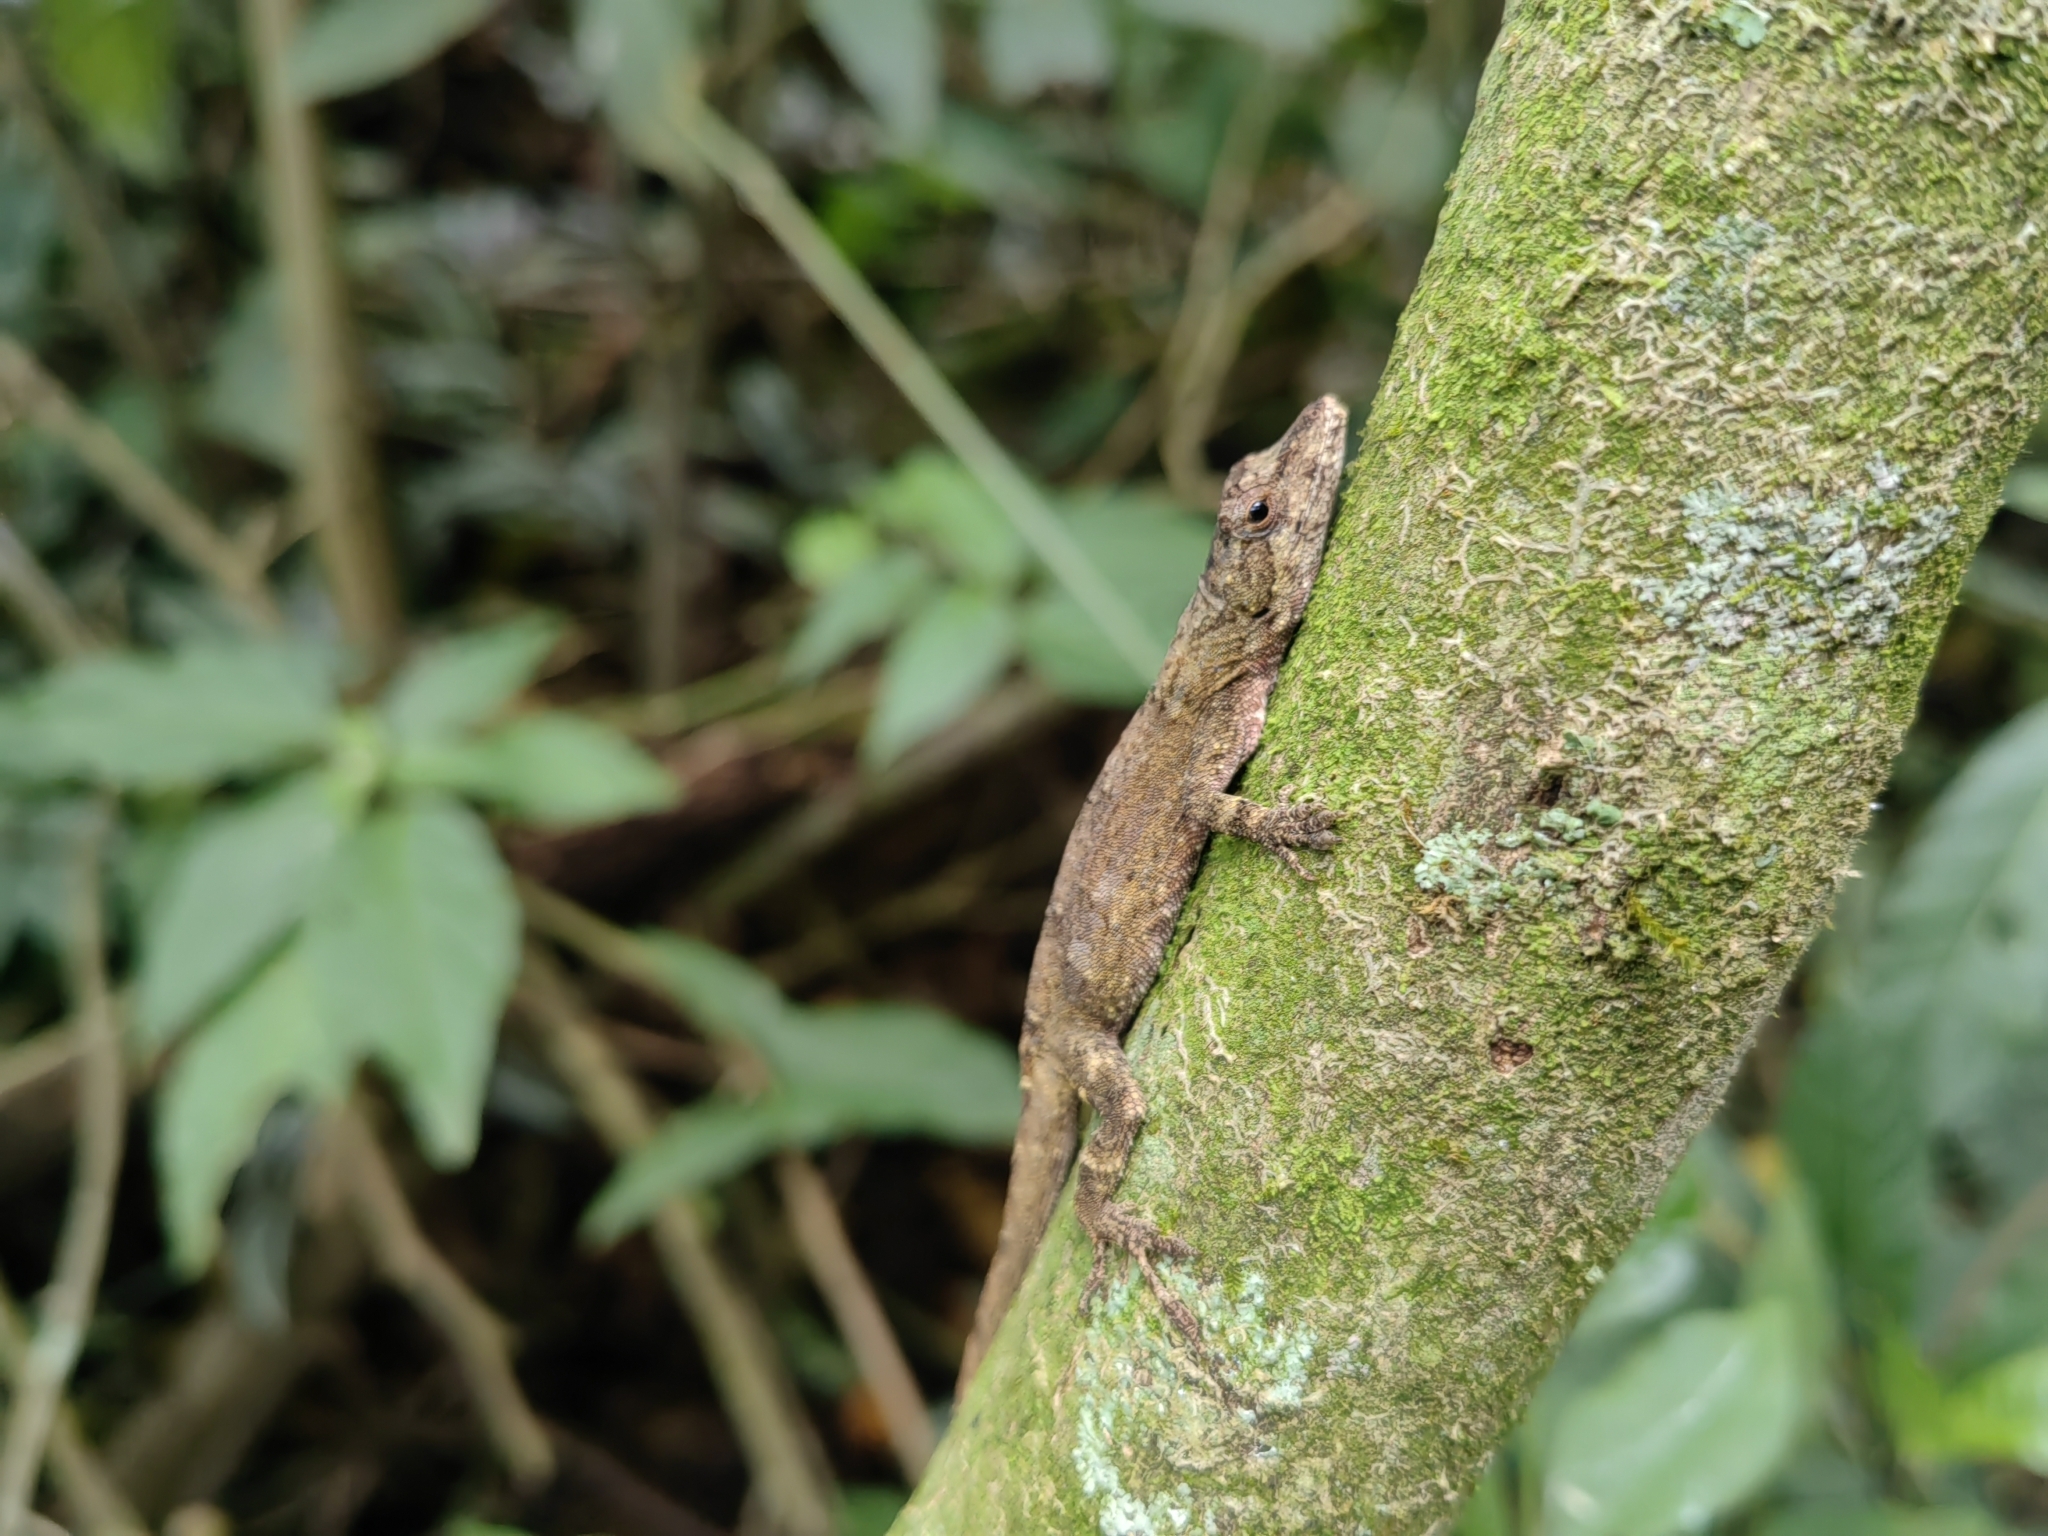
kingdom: Animalia
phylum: Chordata
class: Squamata
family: Dactyloidae
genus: Anolis
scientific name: Anolis laeviventris
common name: White anole
